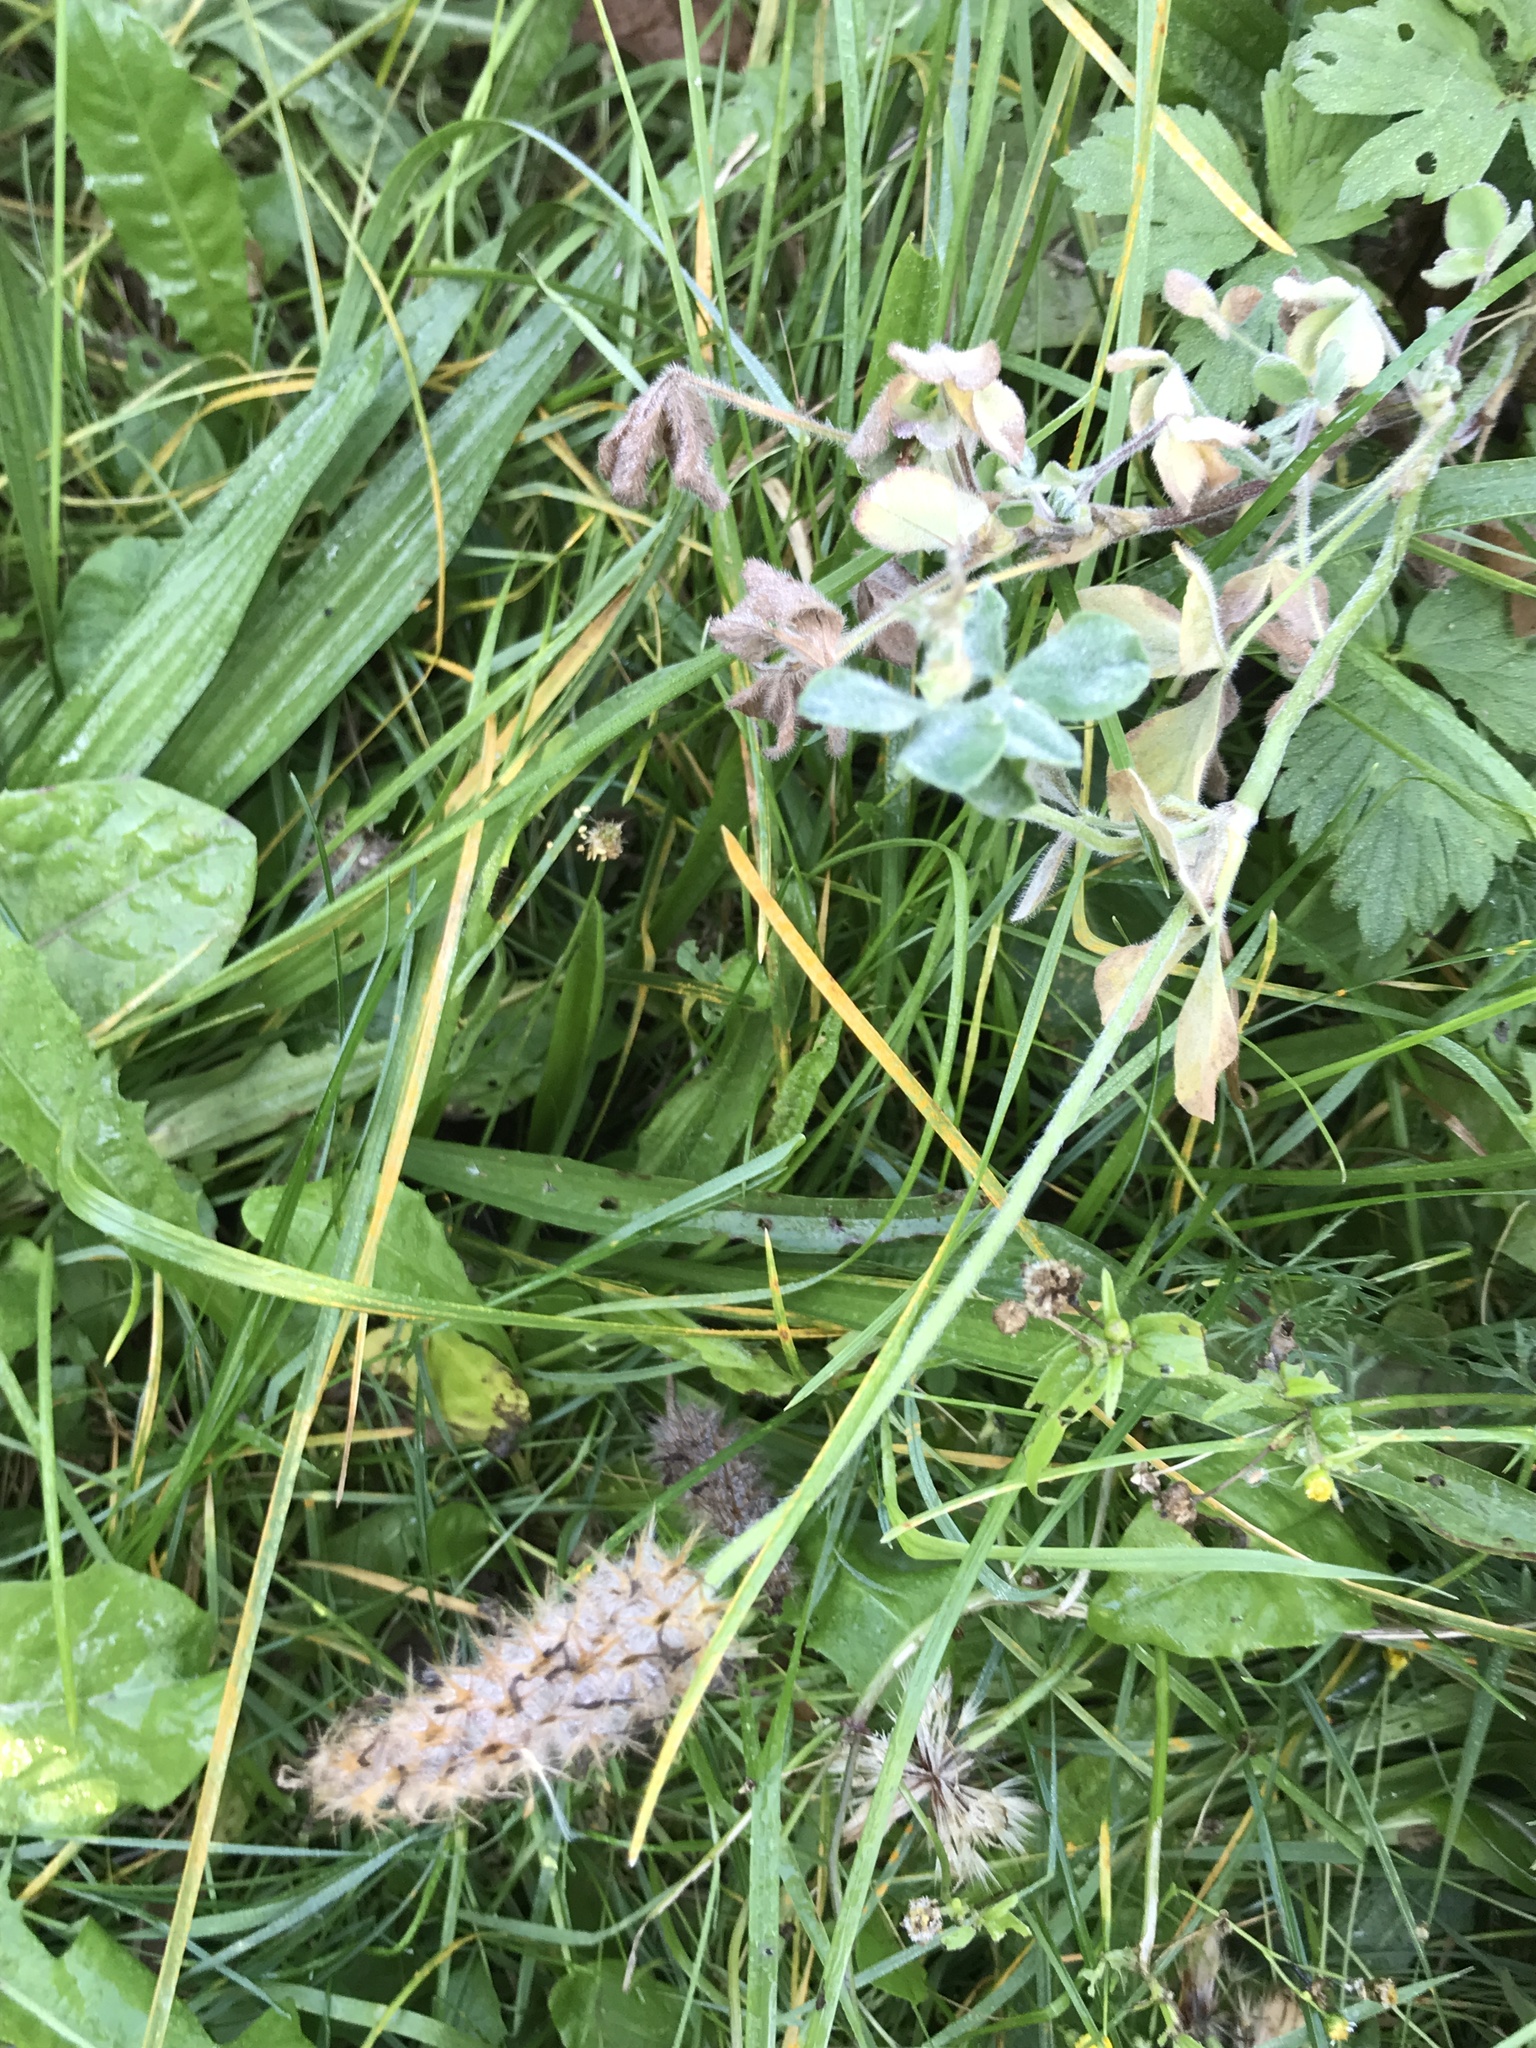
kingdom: Plantae
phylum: Tracheophyta
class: Magnoliopsida
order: Fabales
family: Fabaceae
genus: Trifolium
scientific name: Trifolium arvense
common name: Hare's-foot clover
